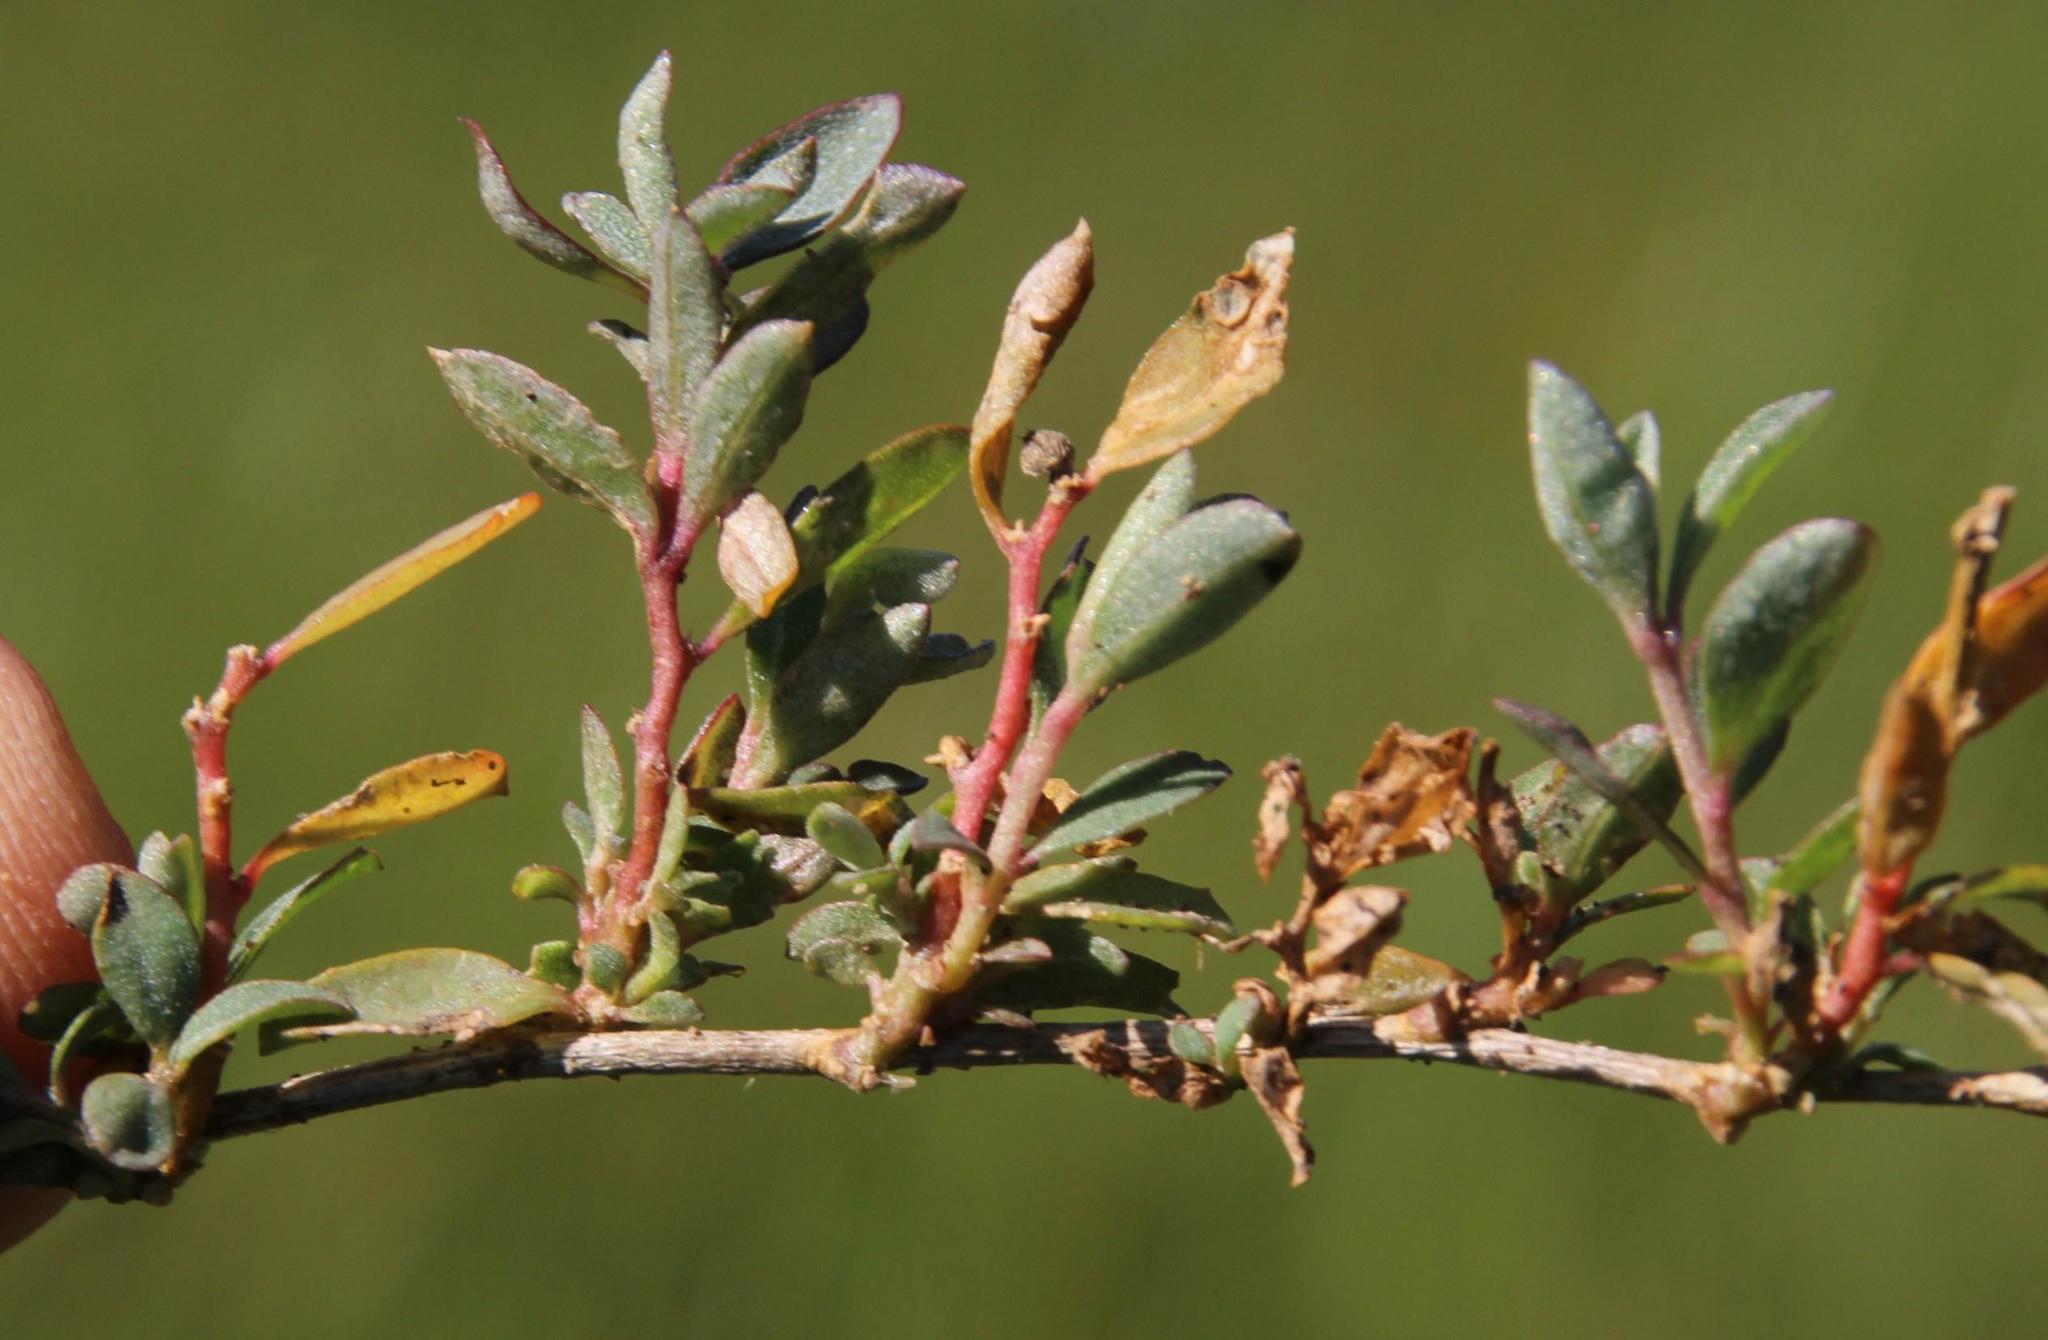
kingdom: Plantae
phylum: Tracheophyta
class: Magnoliopsida
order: Caryophyllales
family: Amaranthaceae
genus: Atriplex
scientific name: Atriplex semibaccata
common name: Australian saltbush
